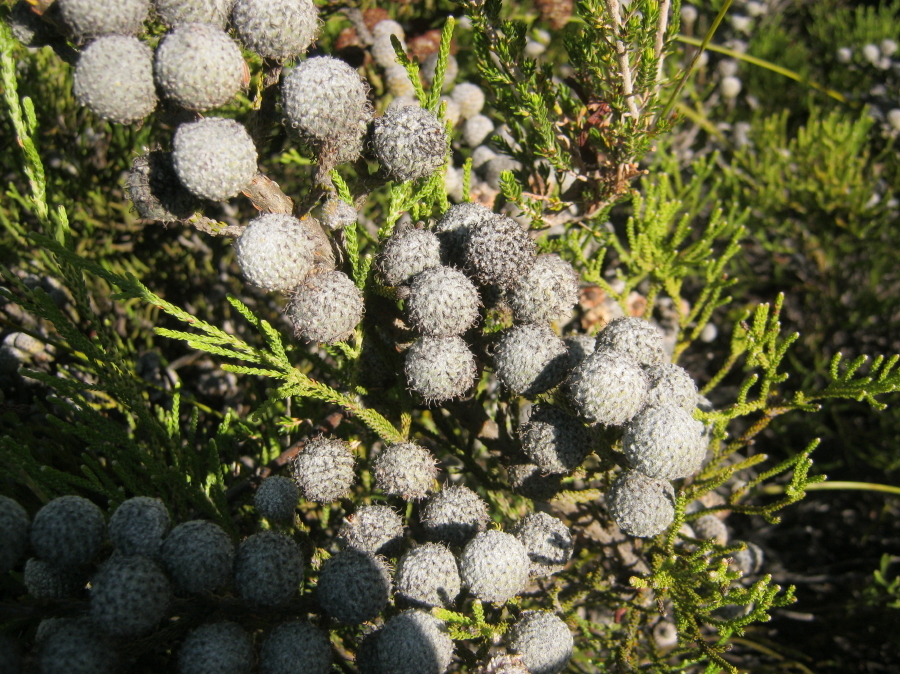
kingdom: Plantae
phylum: Tracheophyta
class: Magnoliopsida
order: Bruniales
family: Bruniaceae
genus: Brunia
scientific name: Brunia noduliflora
